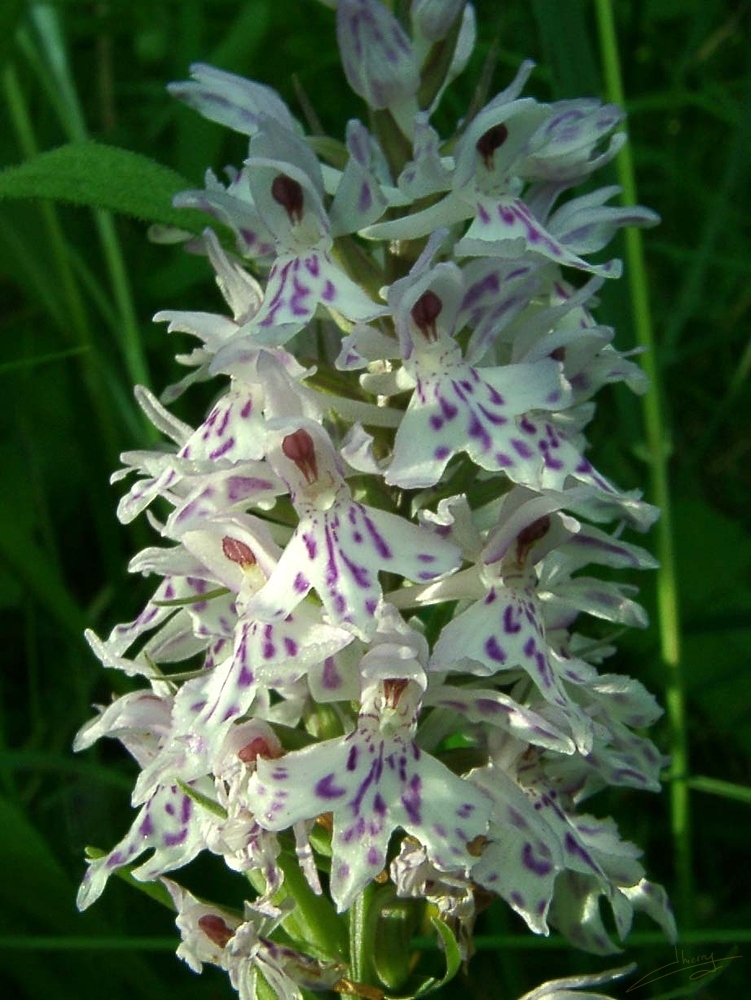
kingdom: Plantae
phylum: Tracheophyta
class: Liliopsida
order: Asparagales
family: Orchidaceae
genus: Dactylorhiza
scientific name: Dactylorhiza maculata
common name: Heath spotted-orchid
